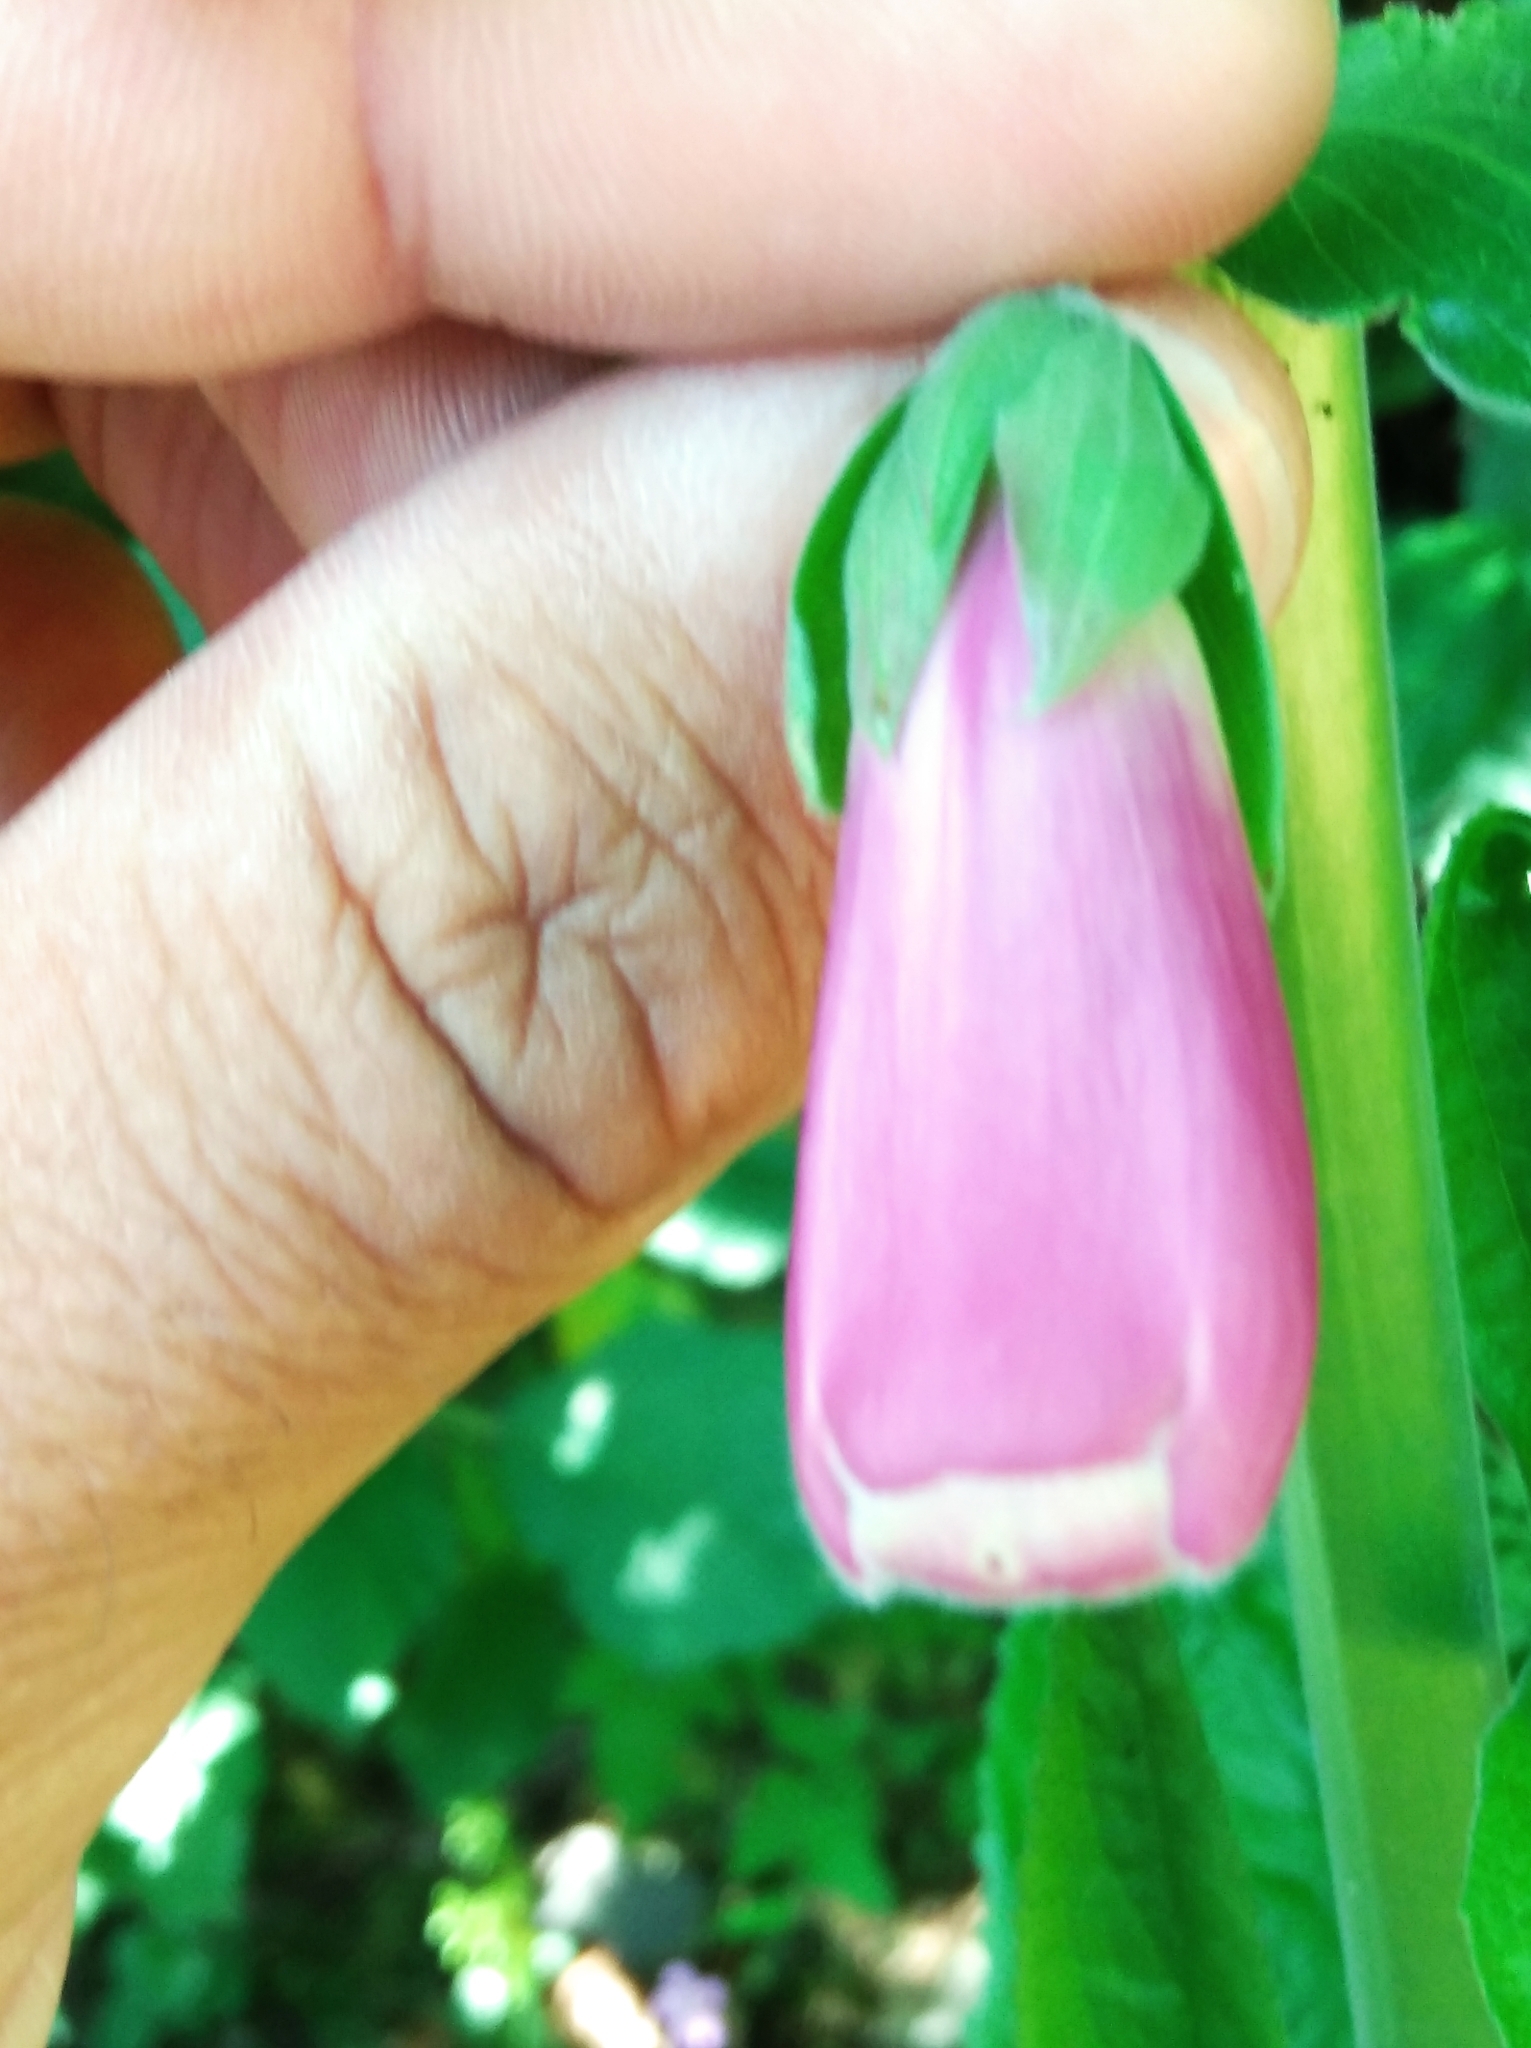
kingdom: Plantae
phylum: Tracheophyta
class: Magnoliopsida
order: Lamiales
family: Plantaginaceae
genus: Digitalis
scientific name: Digitalis purpurea
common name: Foxglove
